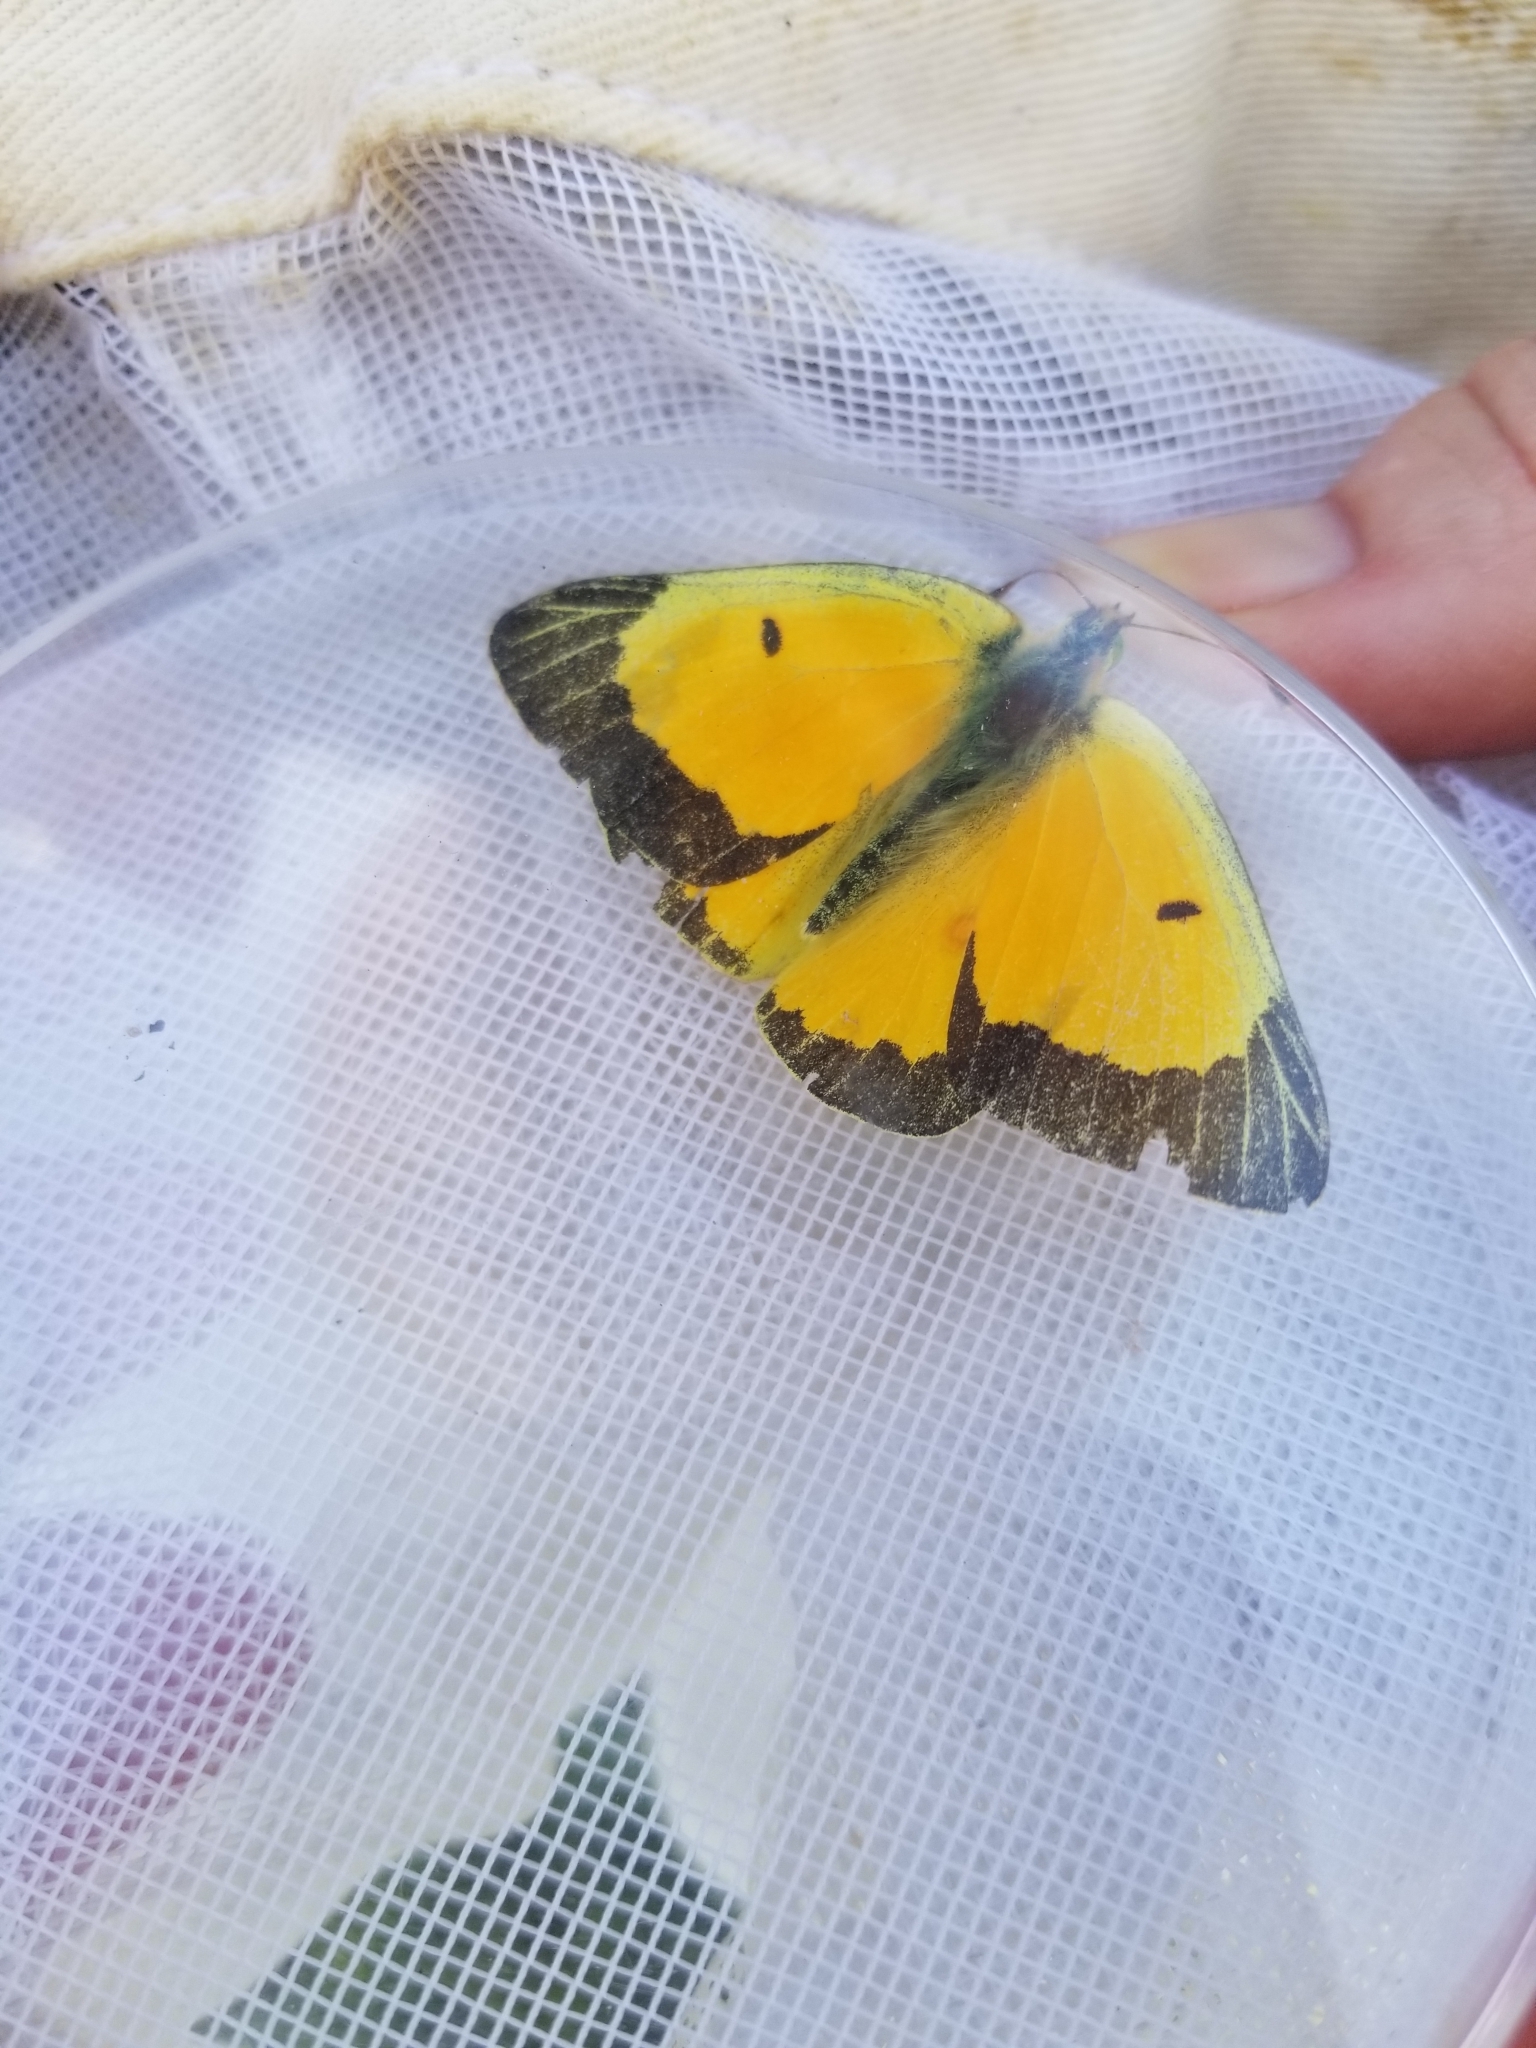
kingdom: Animalia
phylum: Arthropoda
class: Insecta
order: Lepidoptera
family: Pieridae
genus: Colias
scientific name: Colias eurytheme
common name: Alfalfa butterfly
